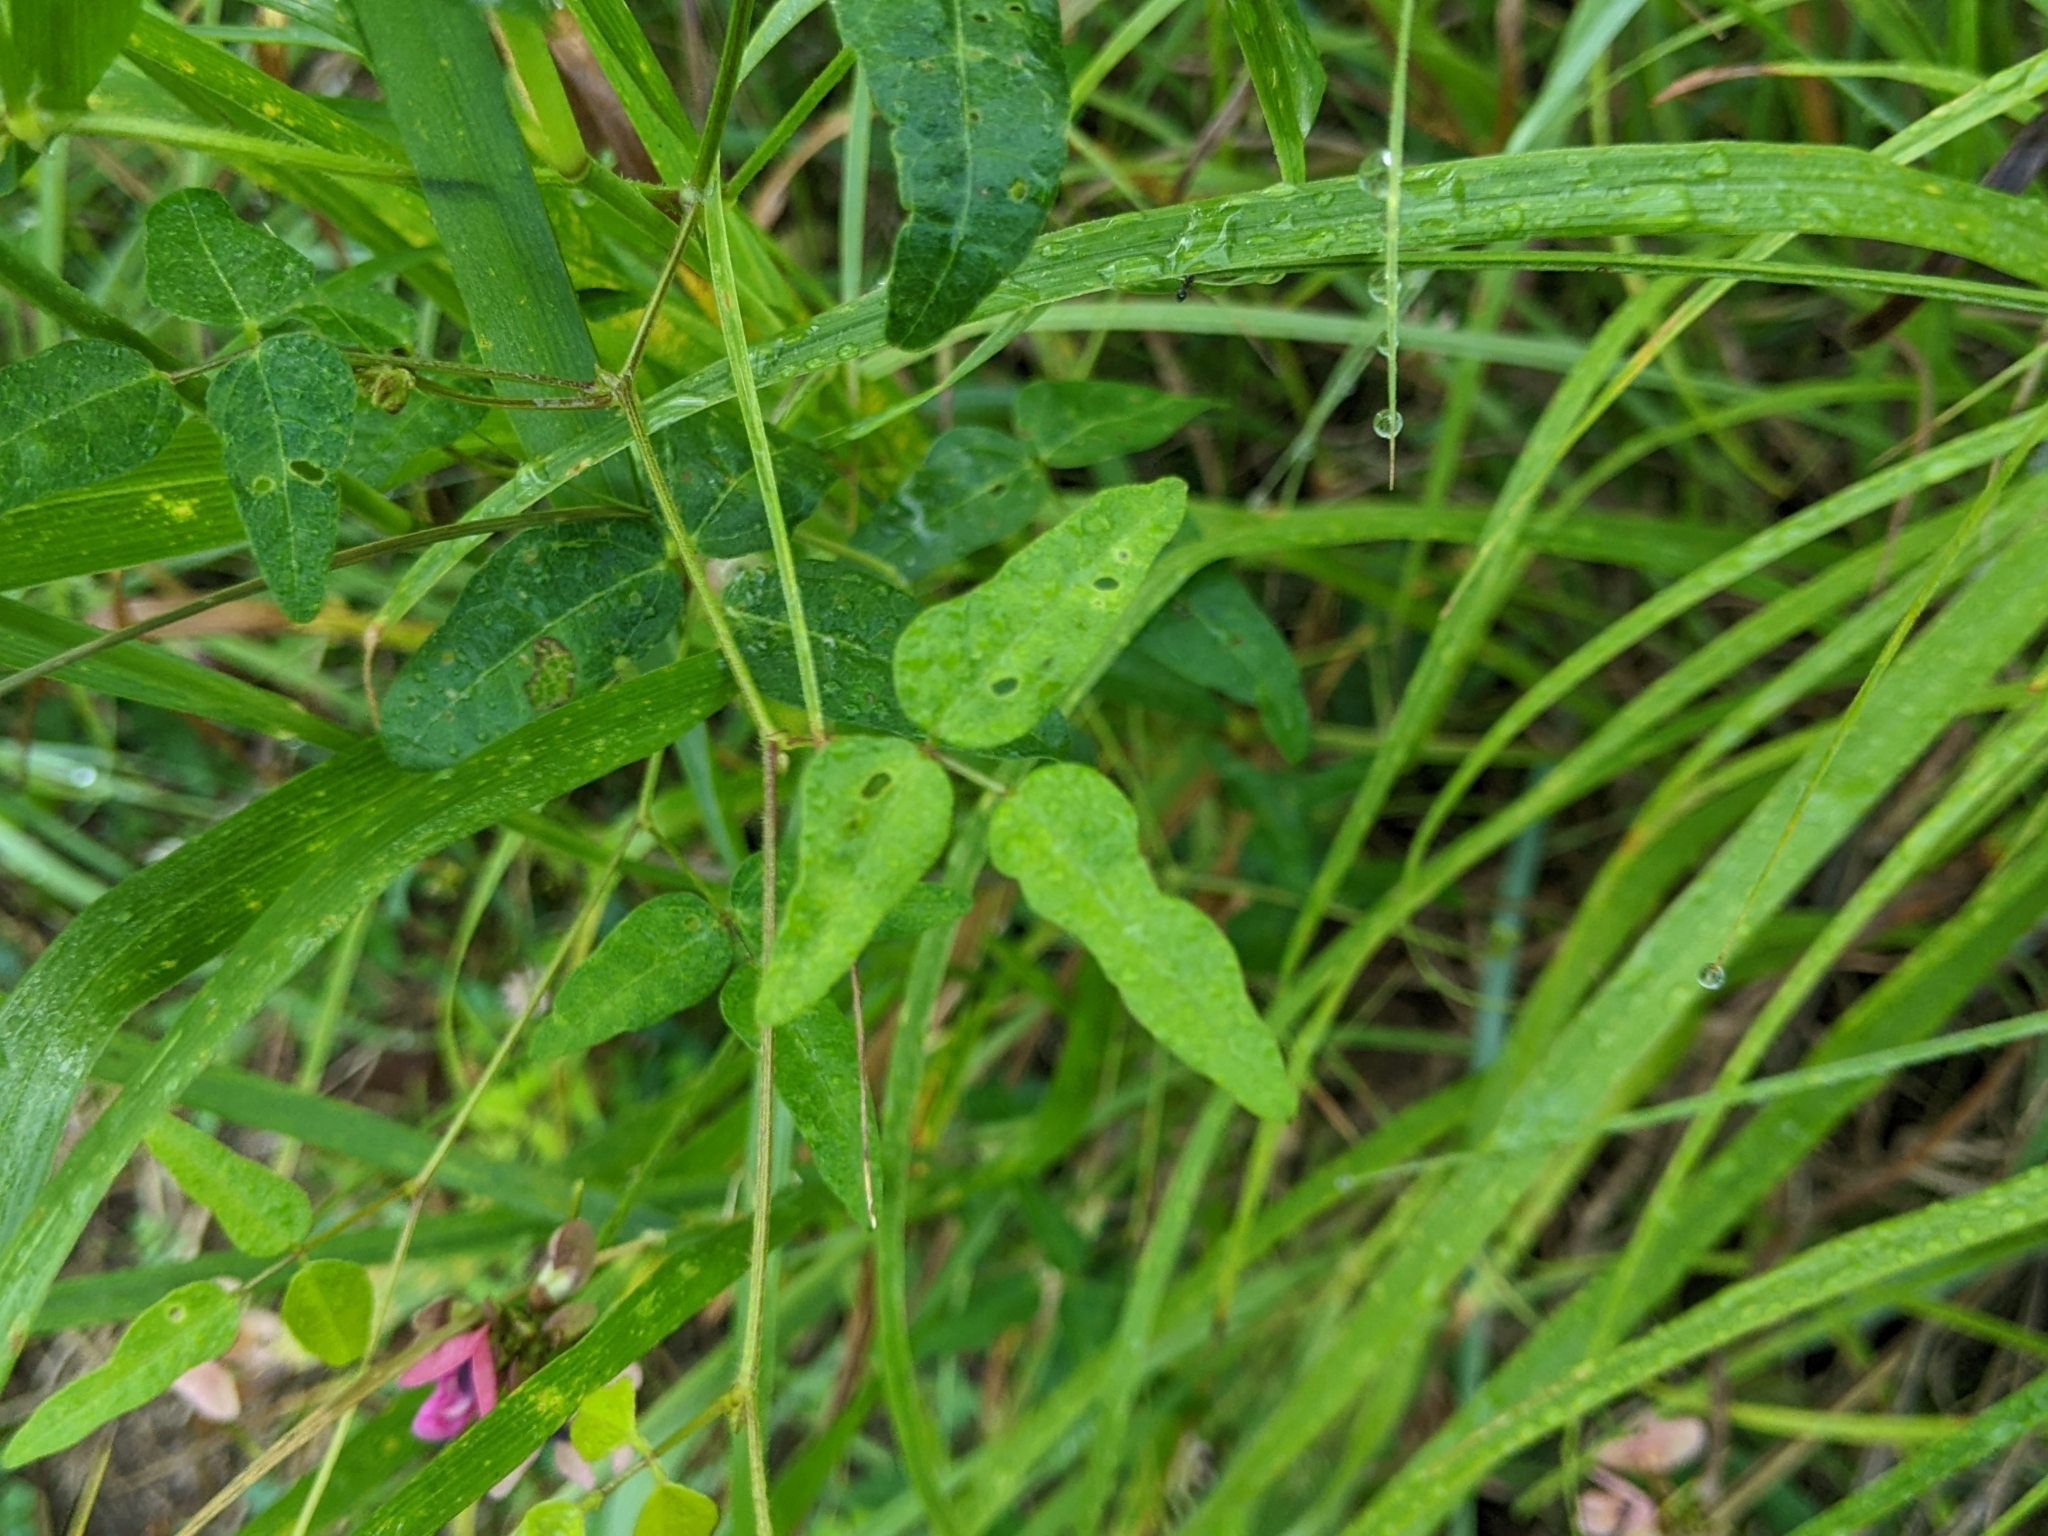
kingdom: Plantae
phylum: Tracheophyta
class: Magnoliopsida
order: Fabales
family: Fabaceae
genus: Strophostyles
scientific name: Strophostyles umbellata
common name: Perennial wild bean
